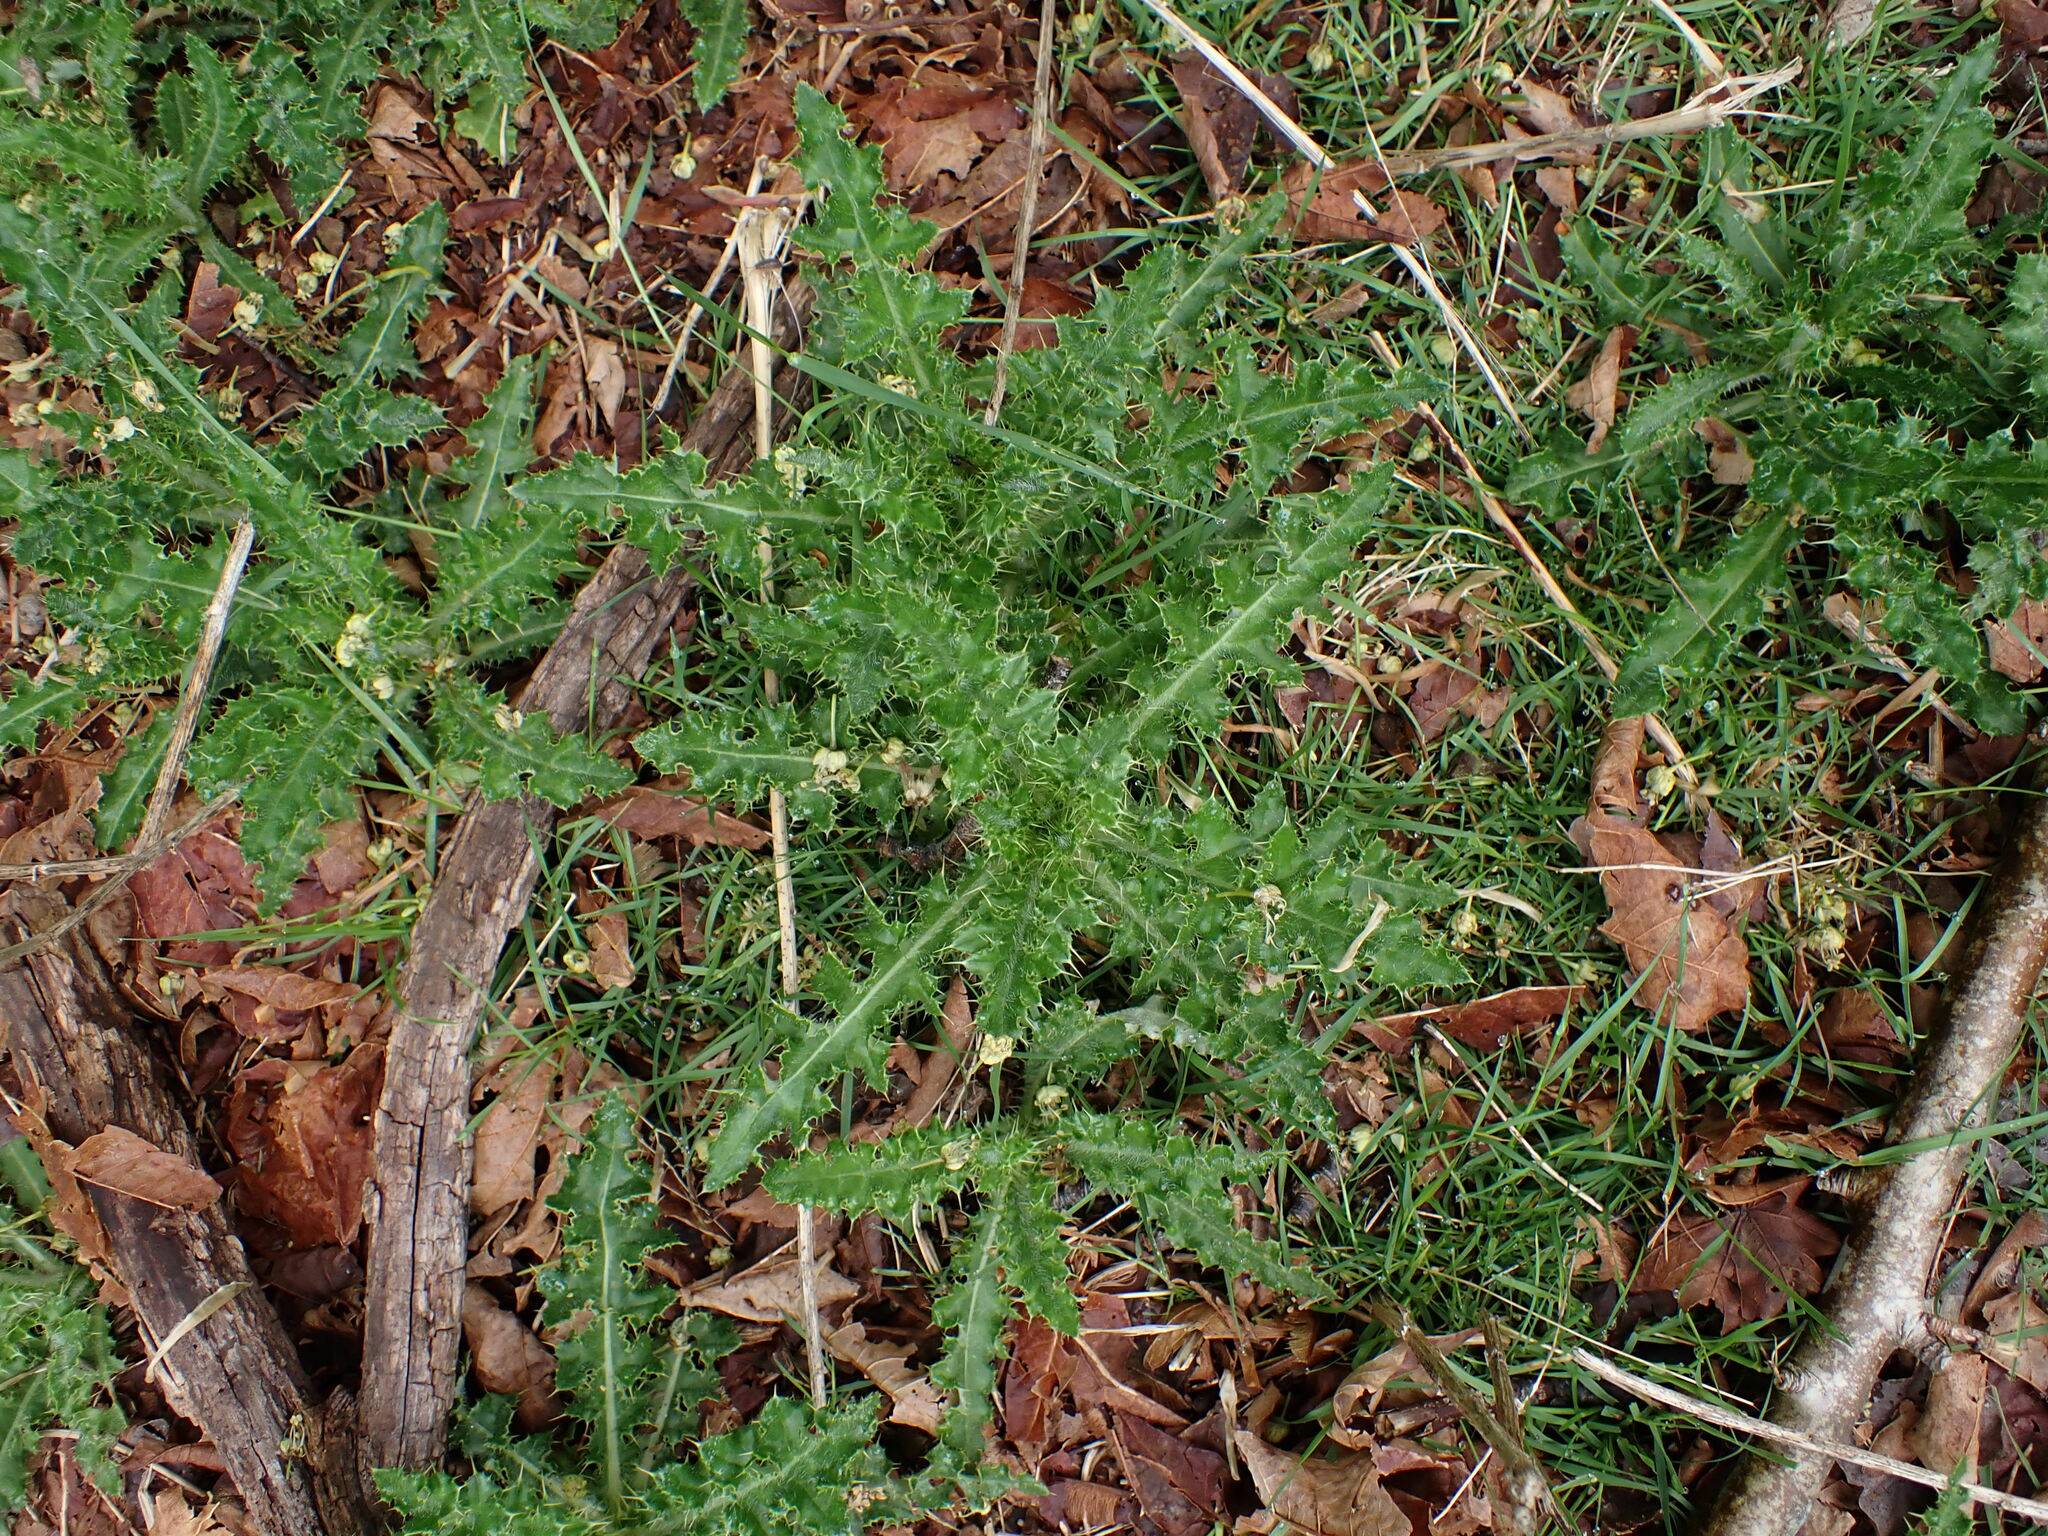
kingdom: Plantae
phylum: Tracheophyta
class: Magnoliopsida
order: Asterales
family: Asteraceae
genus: Cirsium
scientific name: Cirsium arvense
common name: Creeping thistle
